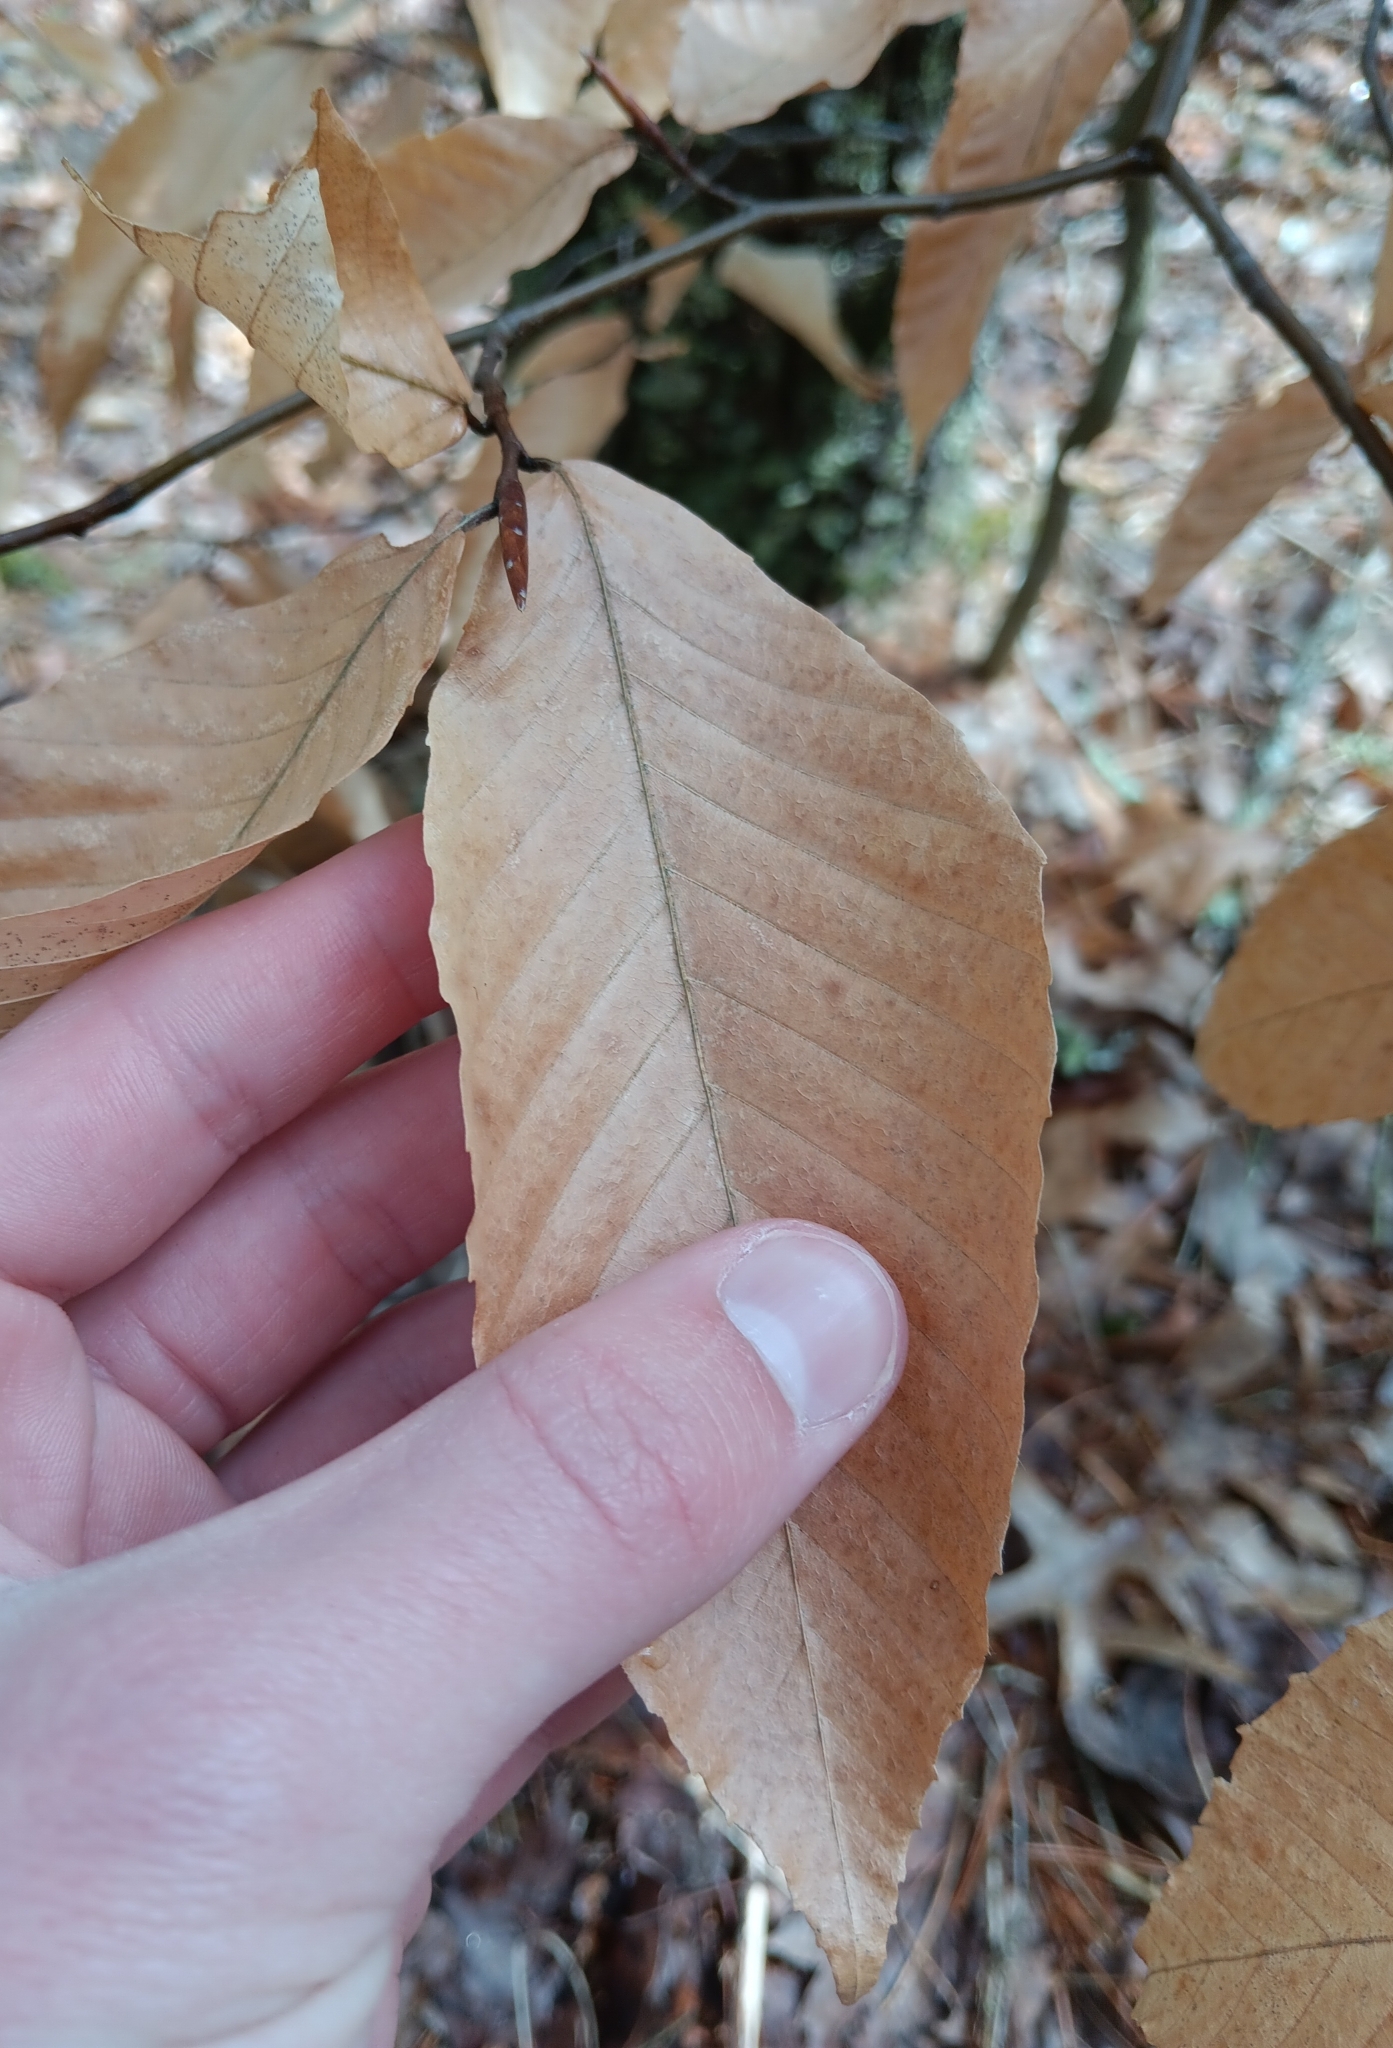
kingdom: Plantae
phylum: Tracheophyta
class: Magnoliopsida
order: Fagales
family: Fagaceae
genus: Fagus
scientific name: Fagus grandifolia
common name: American beech
